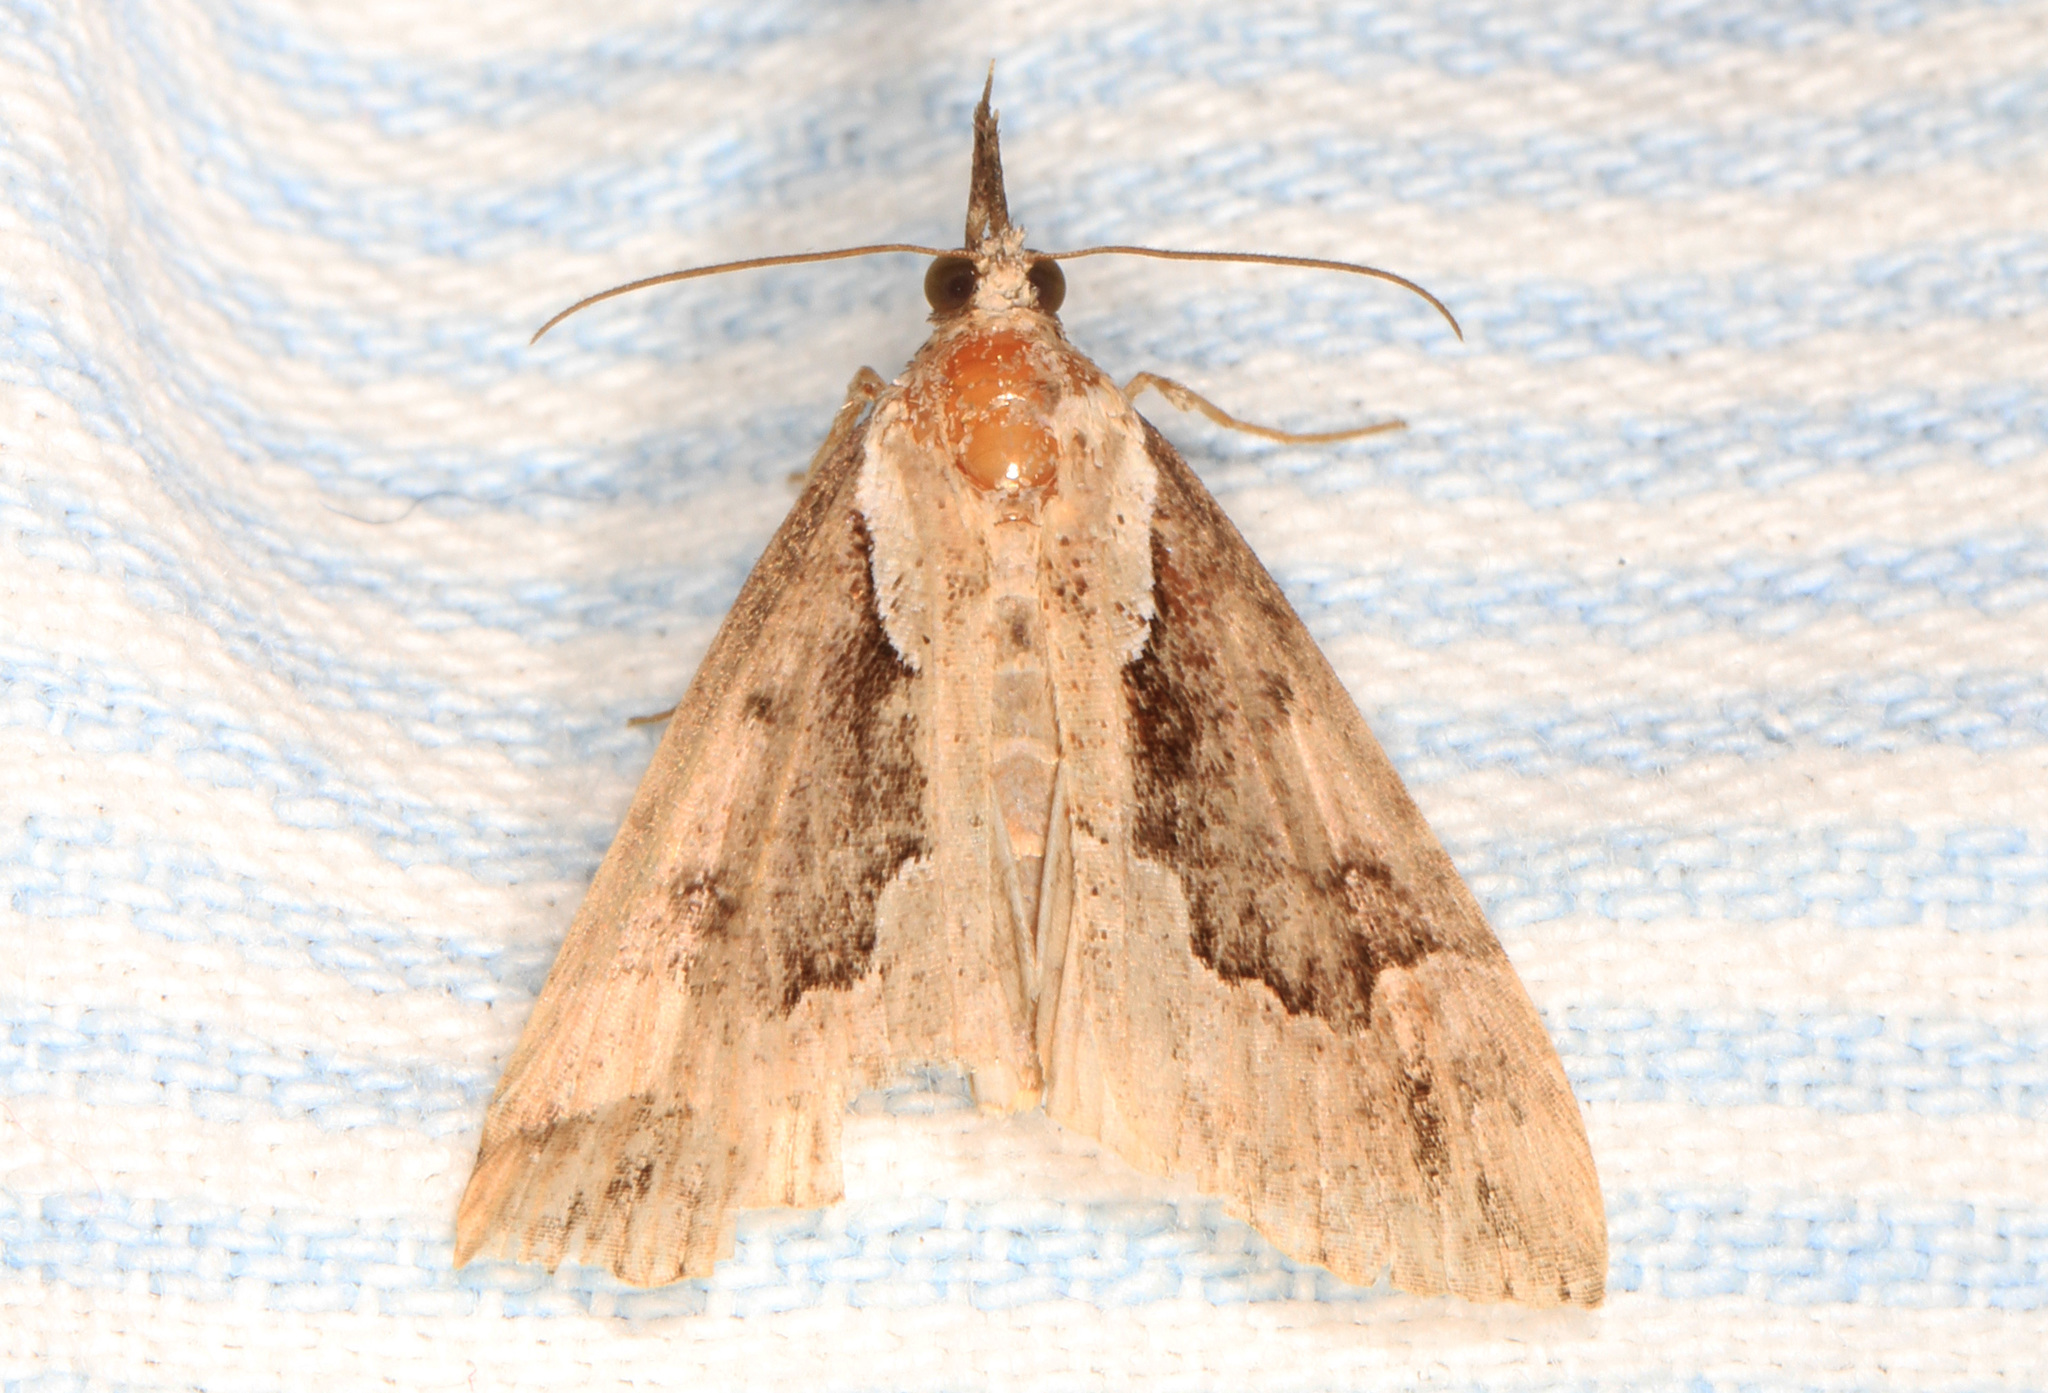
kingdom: Animalia
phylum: Arthropoda
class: Insecta
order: Lepidoptera
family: Erebidae
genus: Hypena
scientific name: Hypena baltimoralis
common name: Baltimore snout
